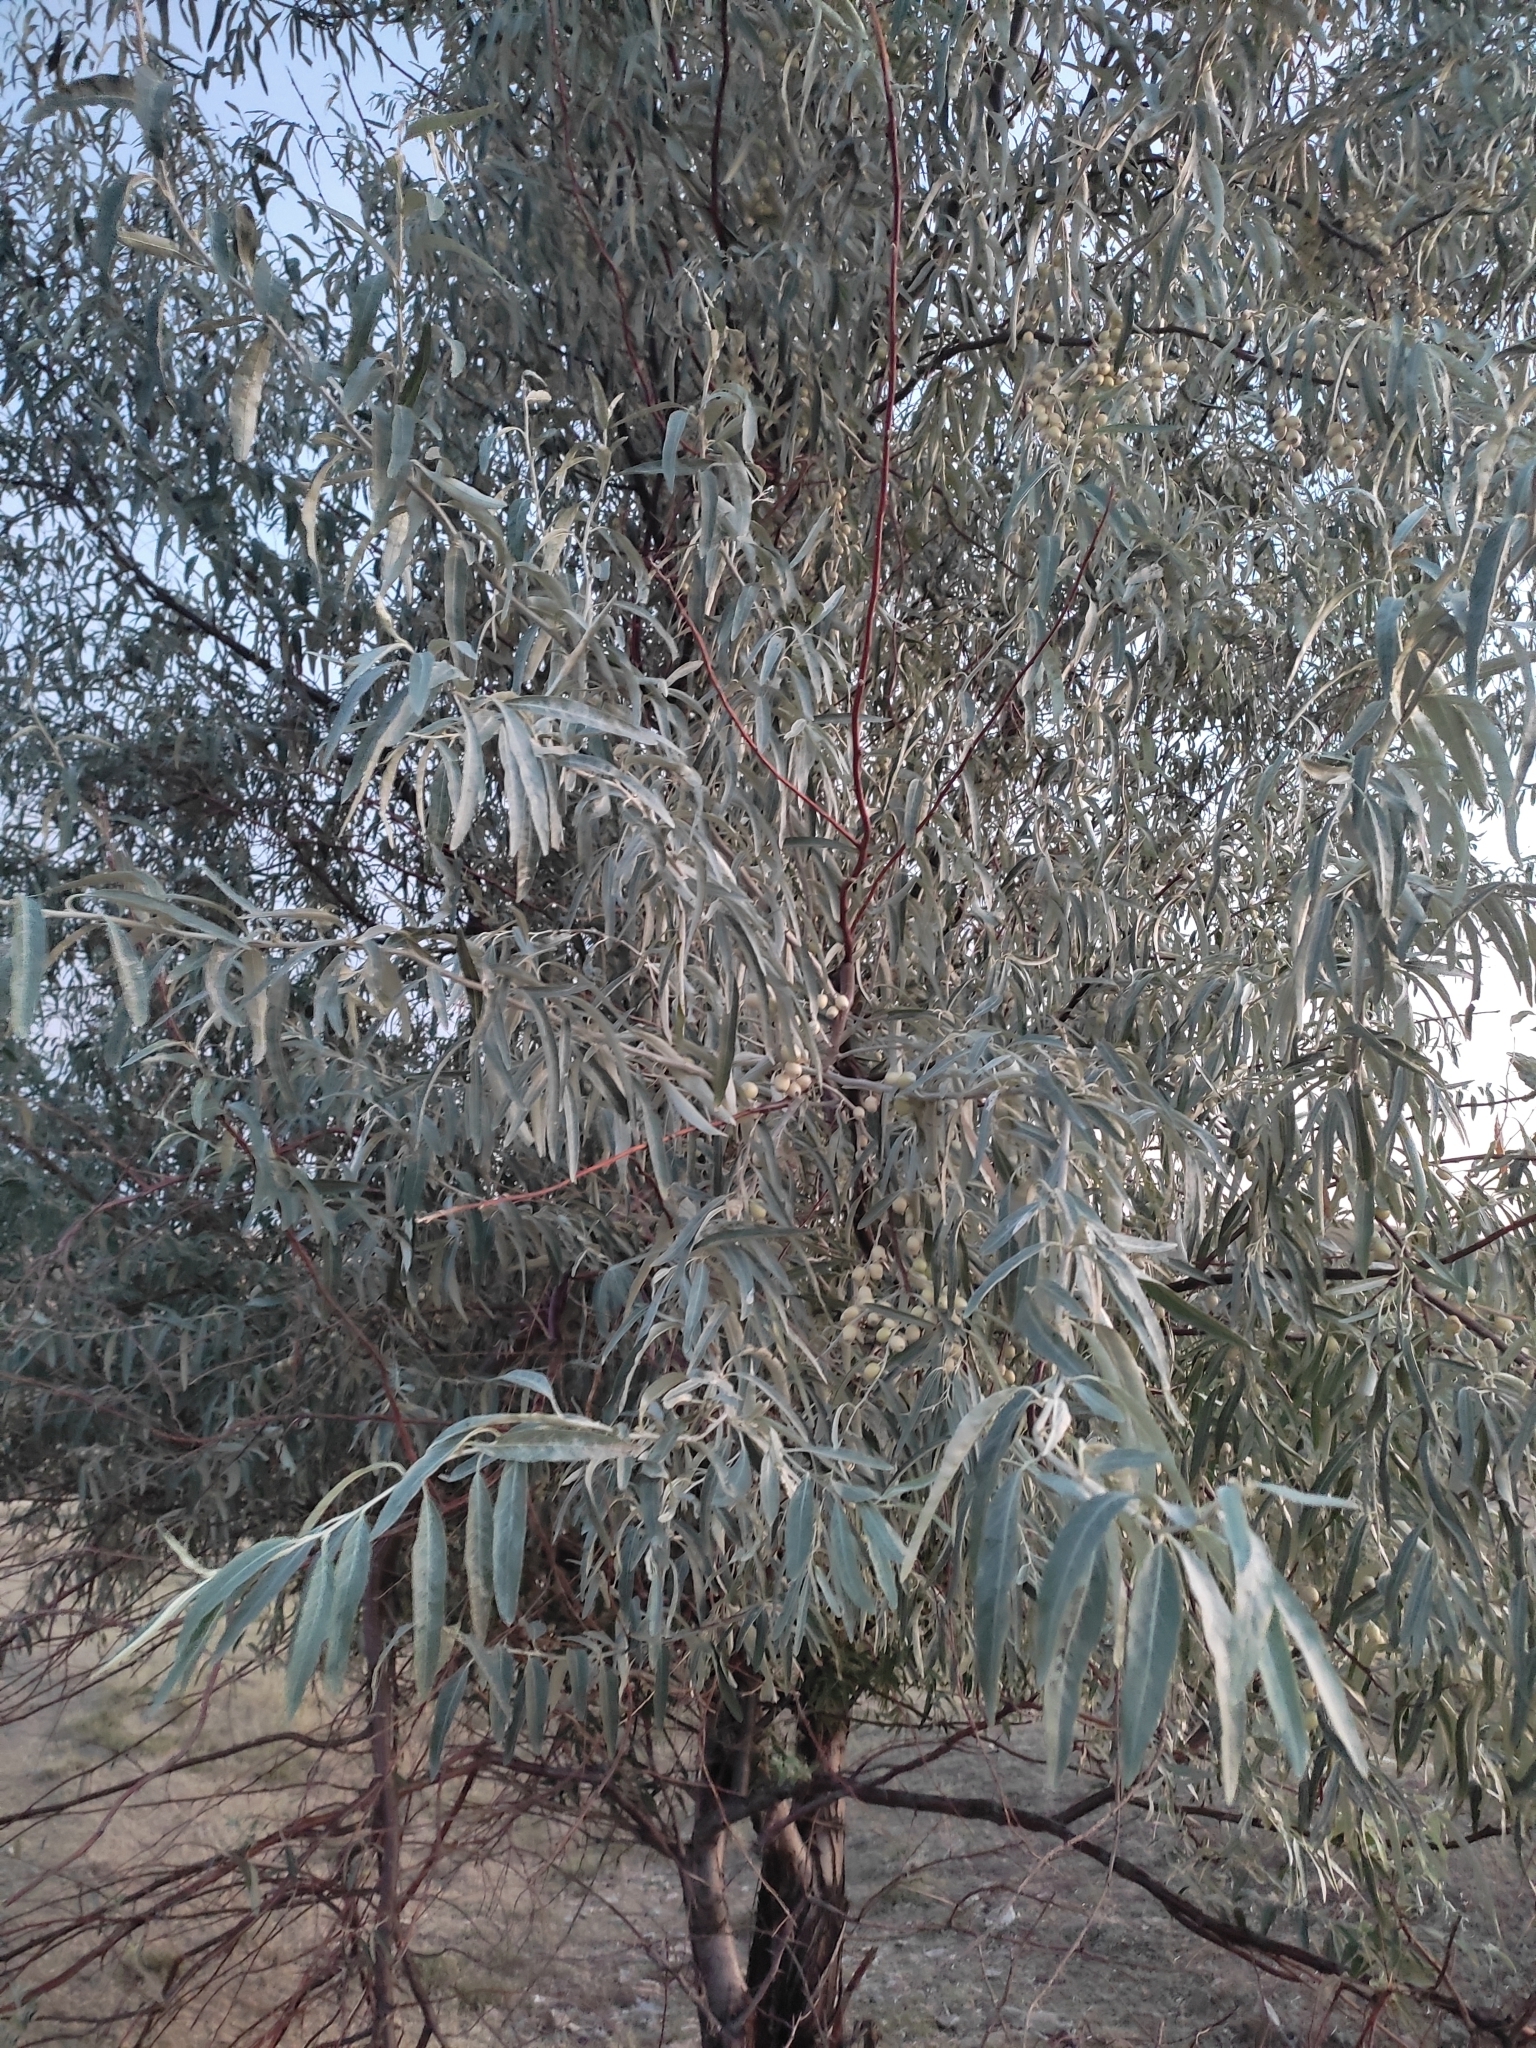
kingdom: Plantae
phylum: Tracheophyta
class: Magnoliopsida
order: Rosales
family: Elaeagnaceae
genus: Elaeagnus
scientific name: Elaeagnus angustifolia
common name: Russian olive
